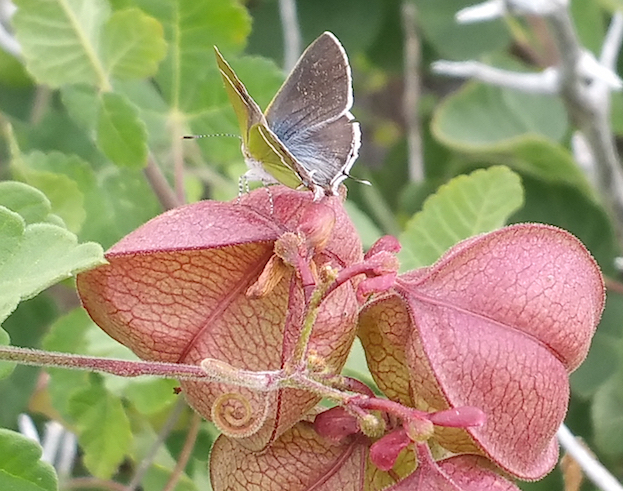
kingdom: Animalia
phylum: Arthropoda
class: Insecta
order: Lepidoptera
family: Lycaenidae
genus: Thecla
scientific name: Thecla sarita
